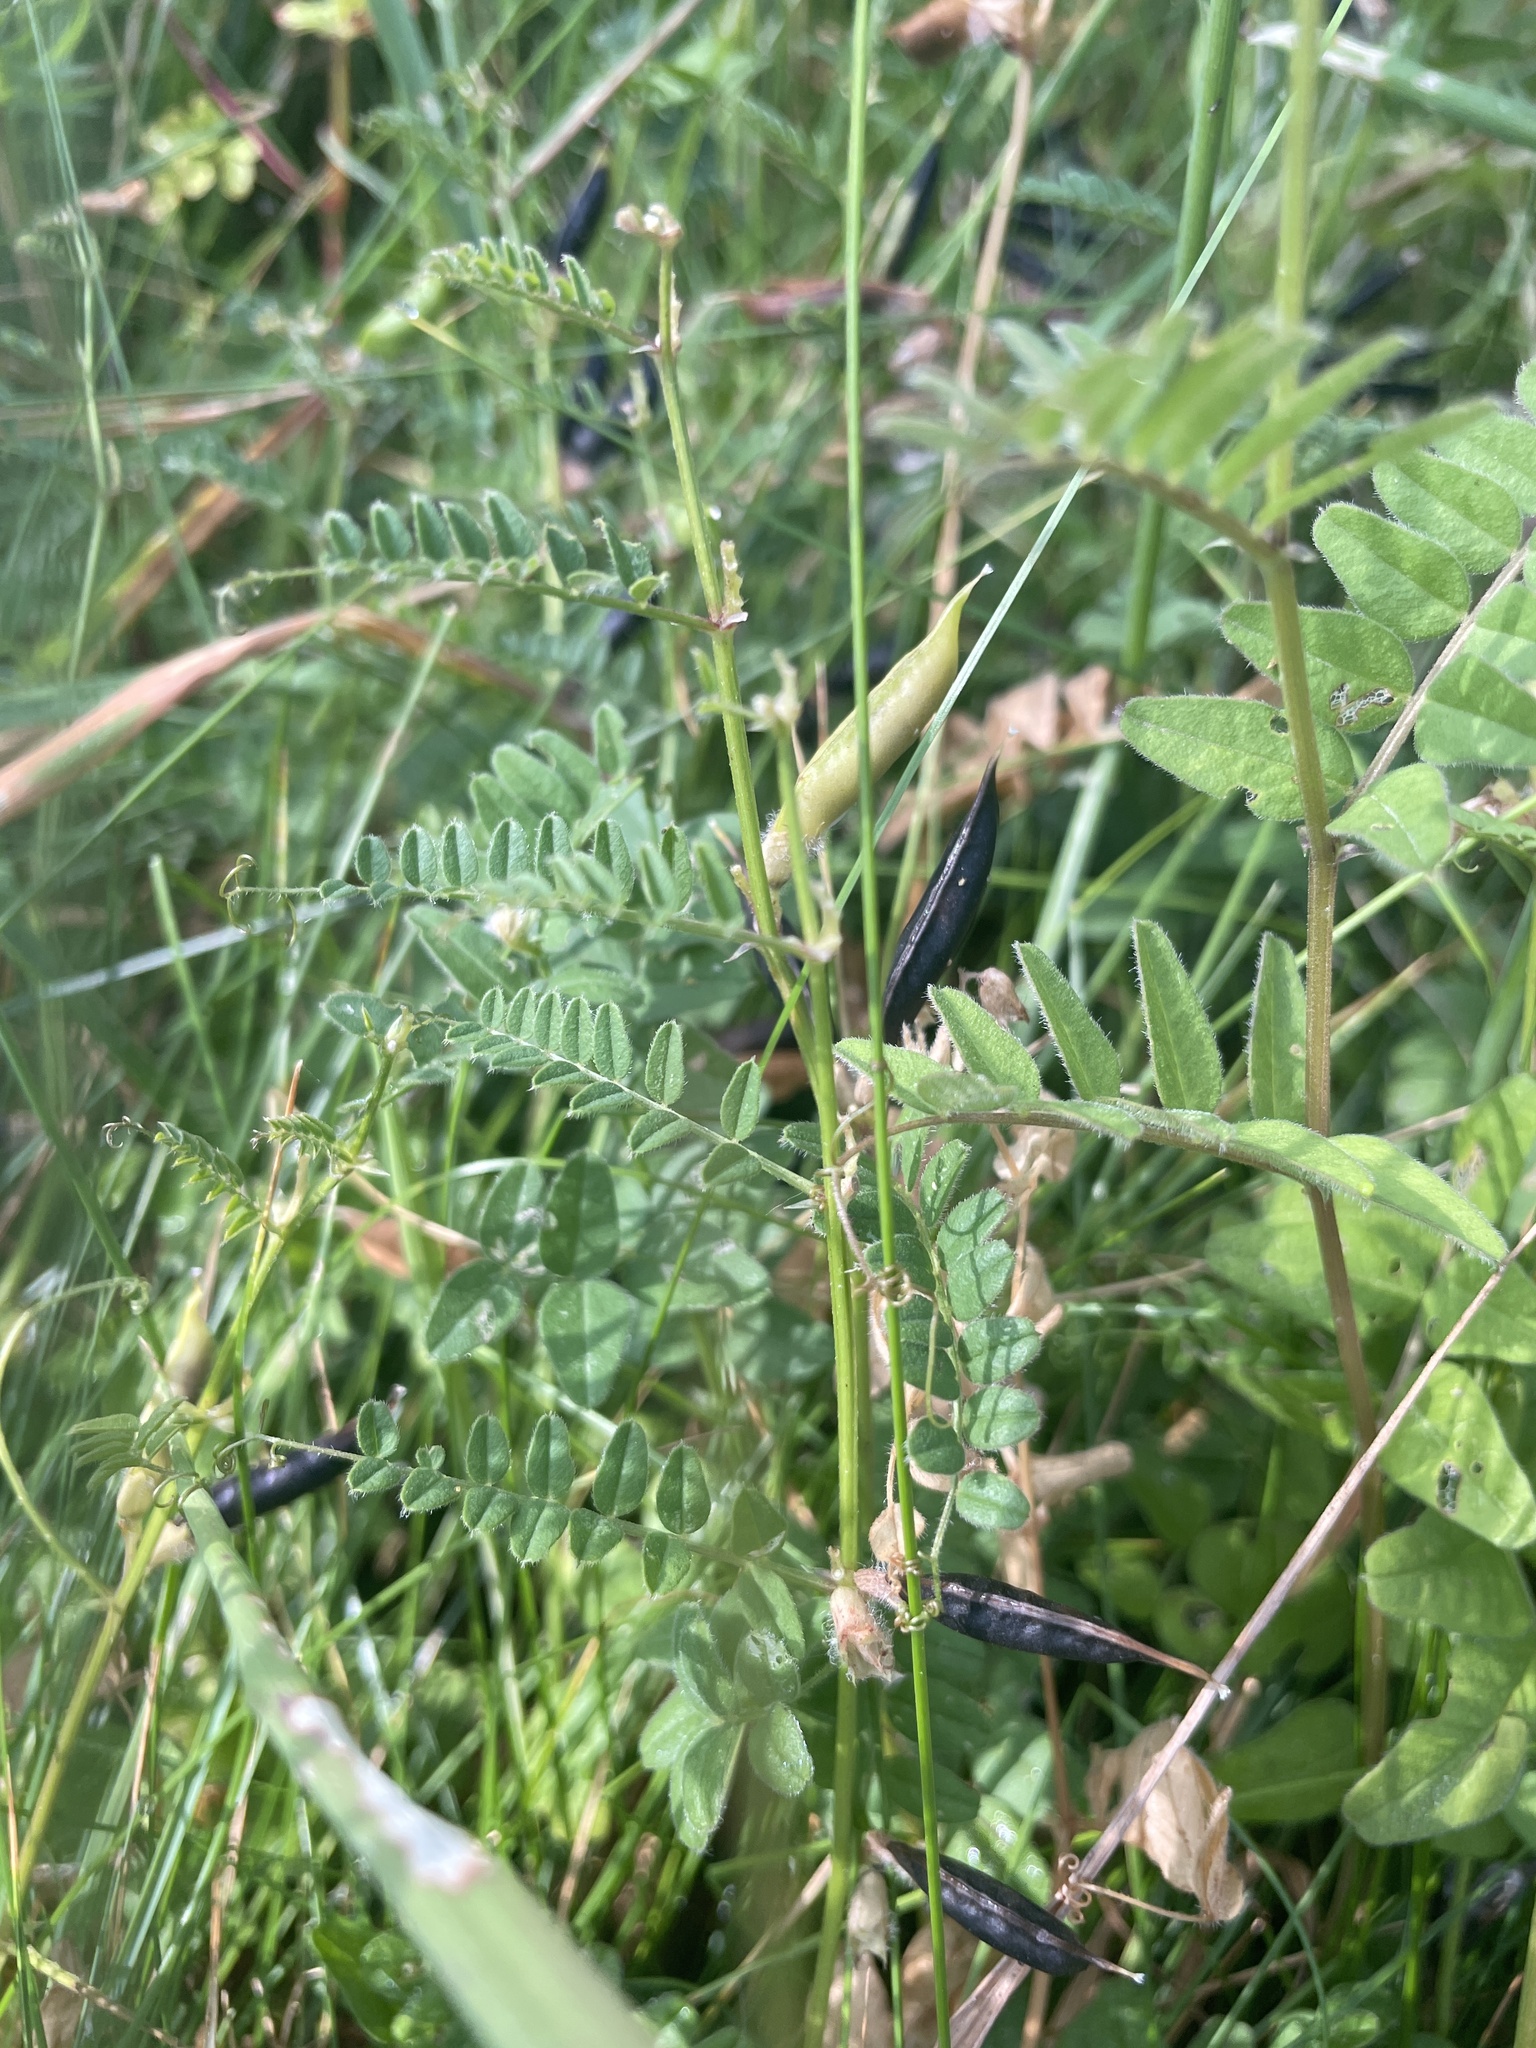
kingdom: Plantae
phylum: Tracheophyta
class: Magnoliopsida
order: Fabales
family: Fabaceae
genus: Vicia
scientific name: Vicia sativa
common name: Garden vetch
